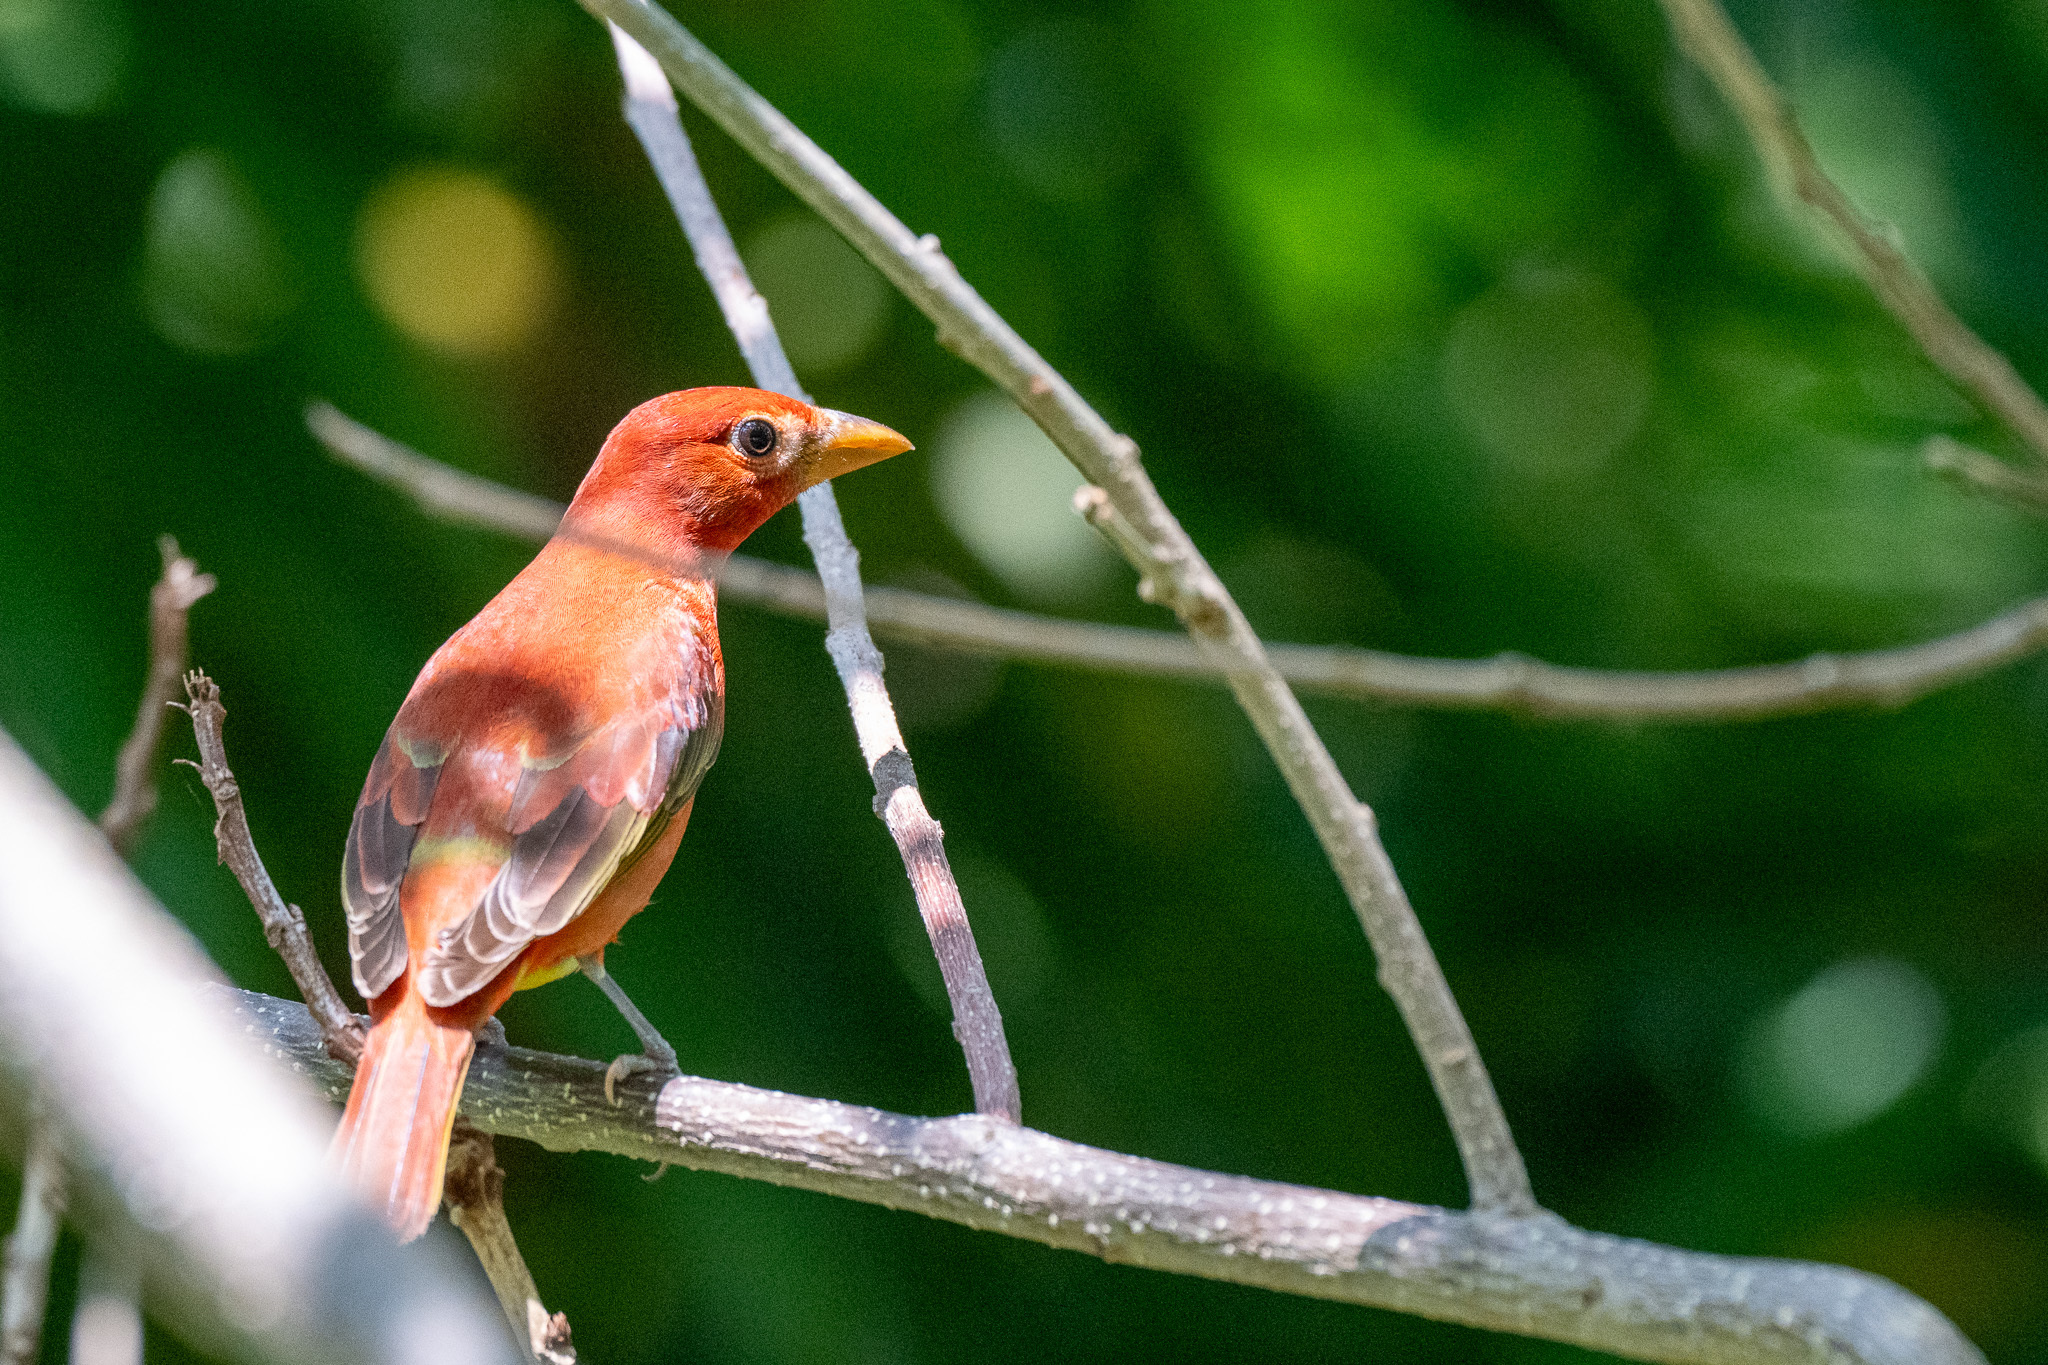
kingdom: Animalia
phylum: Chordata
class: Aves
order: Passeriformes
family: Cardinalidae
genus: Piranga
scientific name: Piranga rubra
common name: Summer tanager
